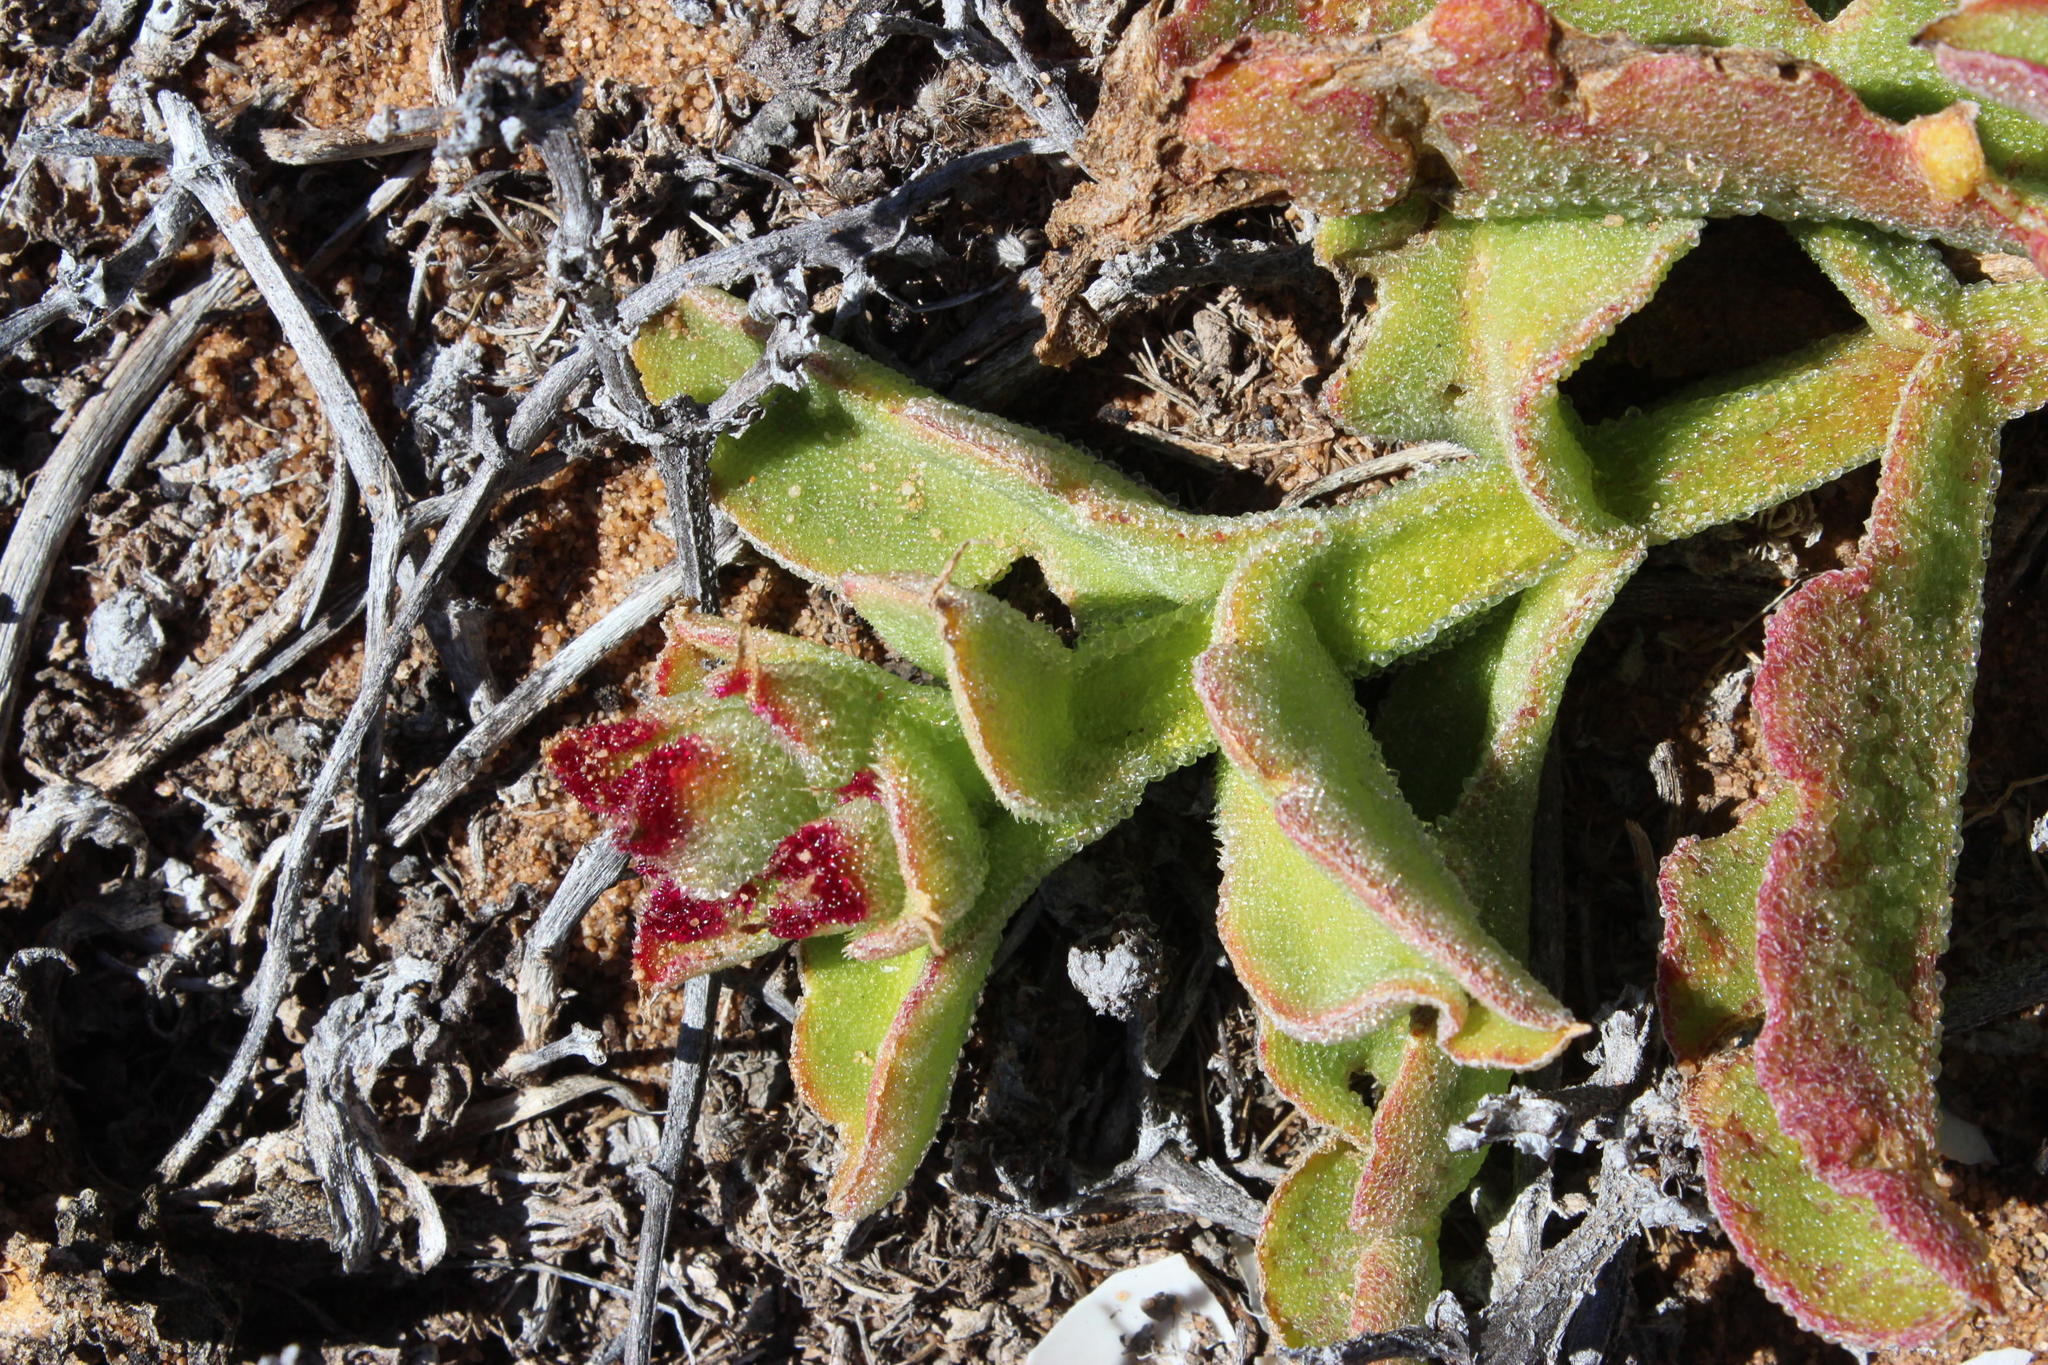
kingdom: Plantae
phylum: Tracheophyta
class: Magnoliopsida
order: Caryophyllales
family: Aizoaceae
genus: Mesembryanthemum
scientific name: Mesembryanthemum guerichianum
